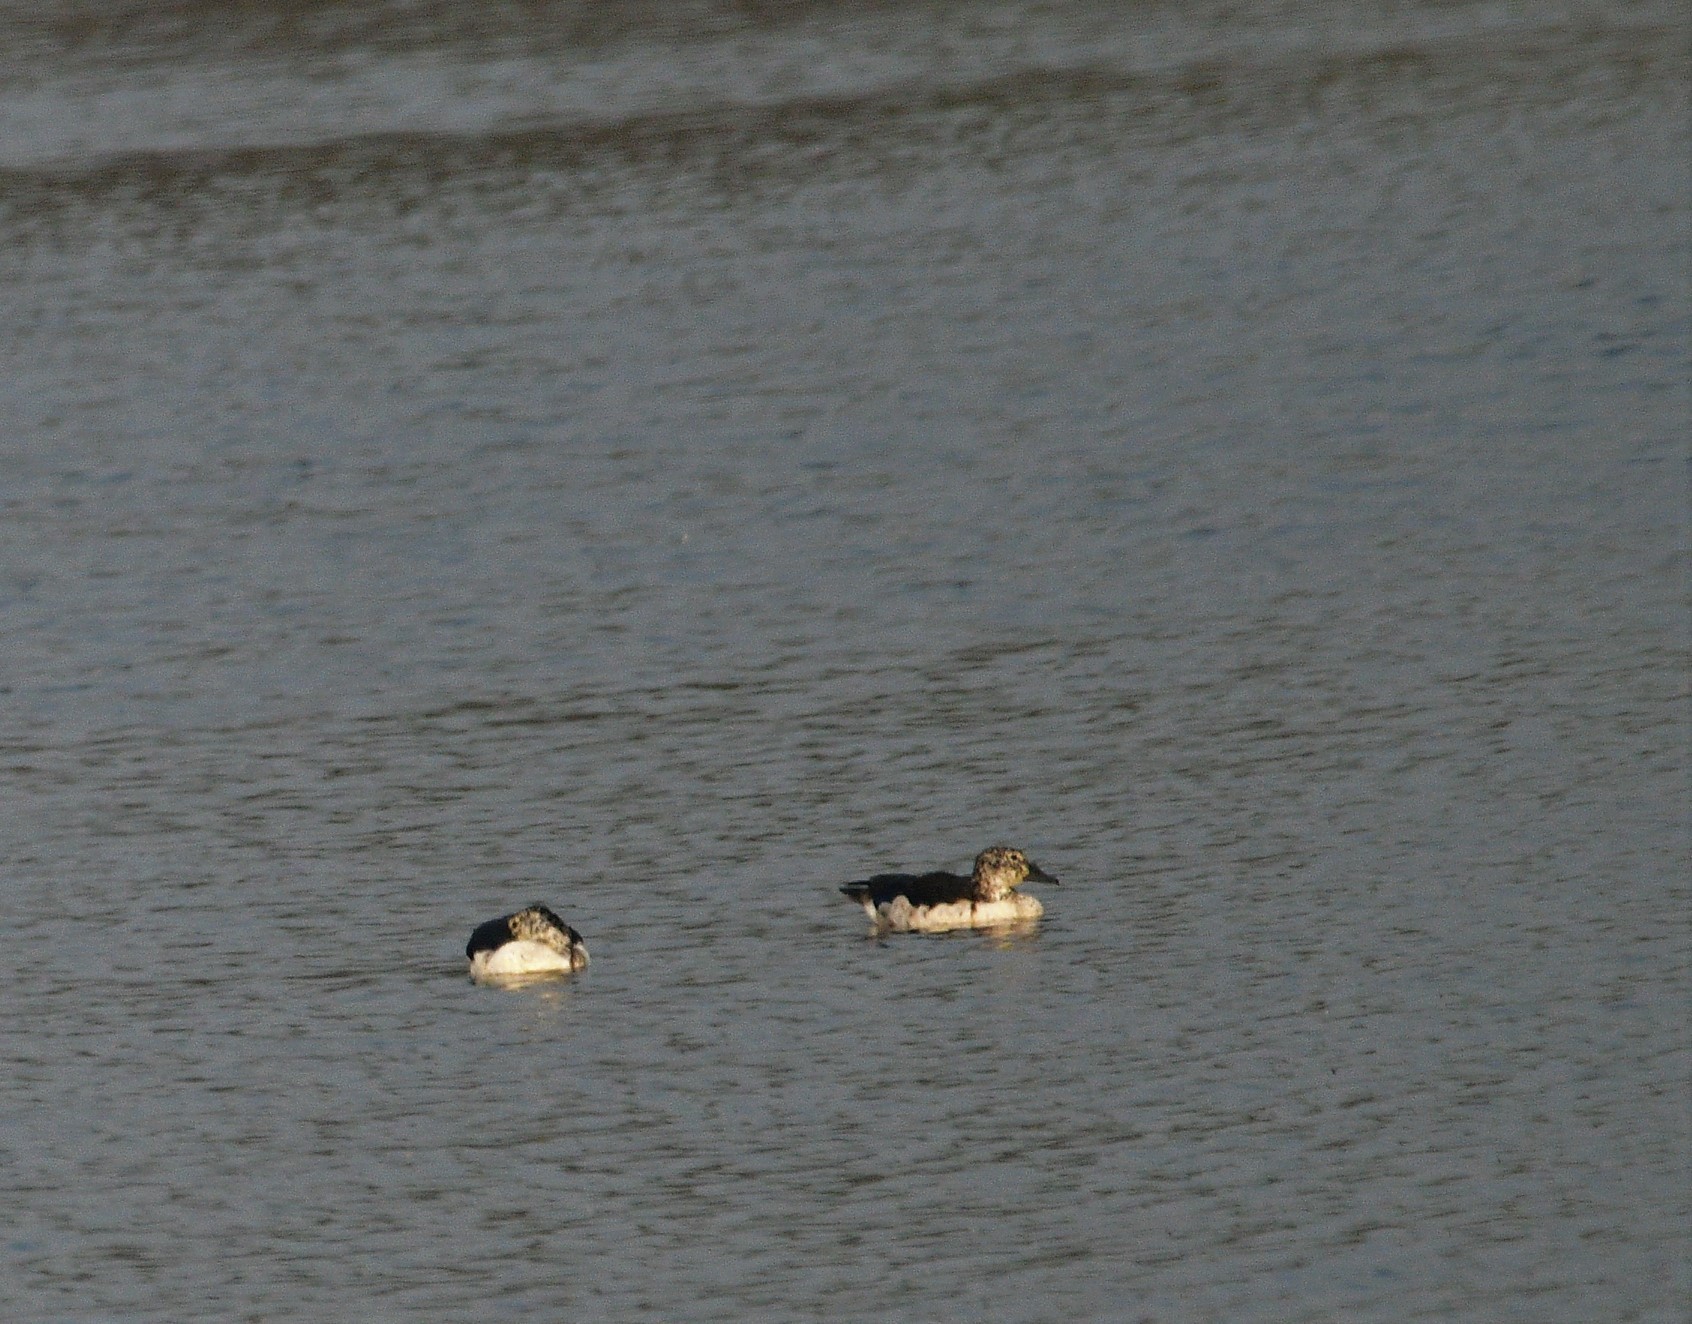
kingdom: Animalia
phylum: Chordata
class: Aves
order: Anseriformes
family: Anatidae
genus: Sarkidiornis
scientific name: Sarkidiornis melanotos
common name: Comb duck
